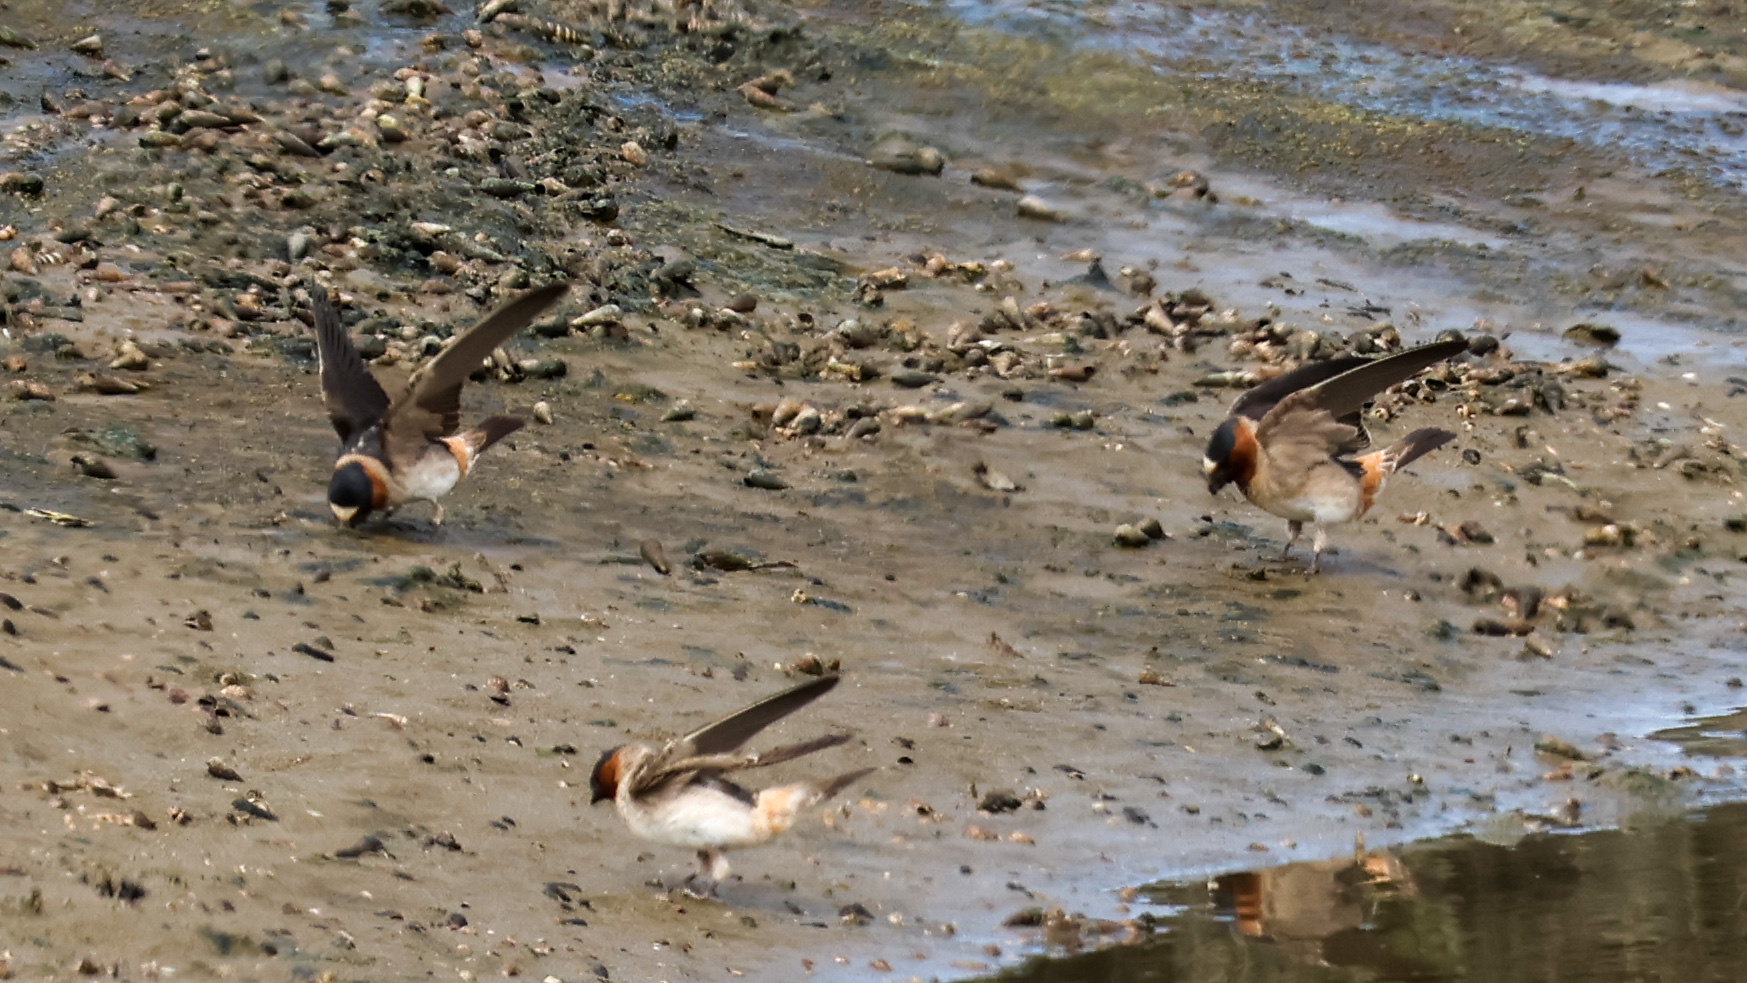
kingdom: Animalia
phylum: Chordata
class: Aves
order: Passeriformes
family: Hirundinidae
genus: Petrochelidon
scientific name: Petrochelidon pyrrhonota
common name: American cliff swallow
